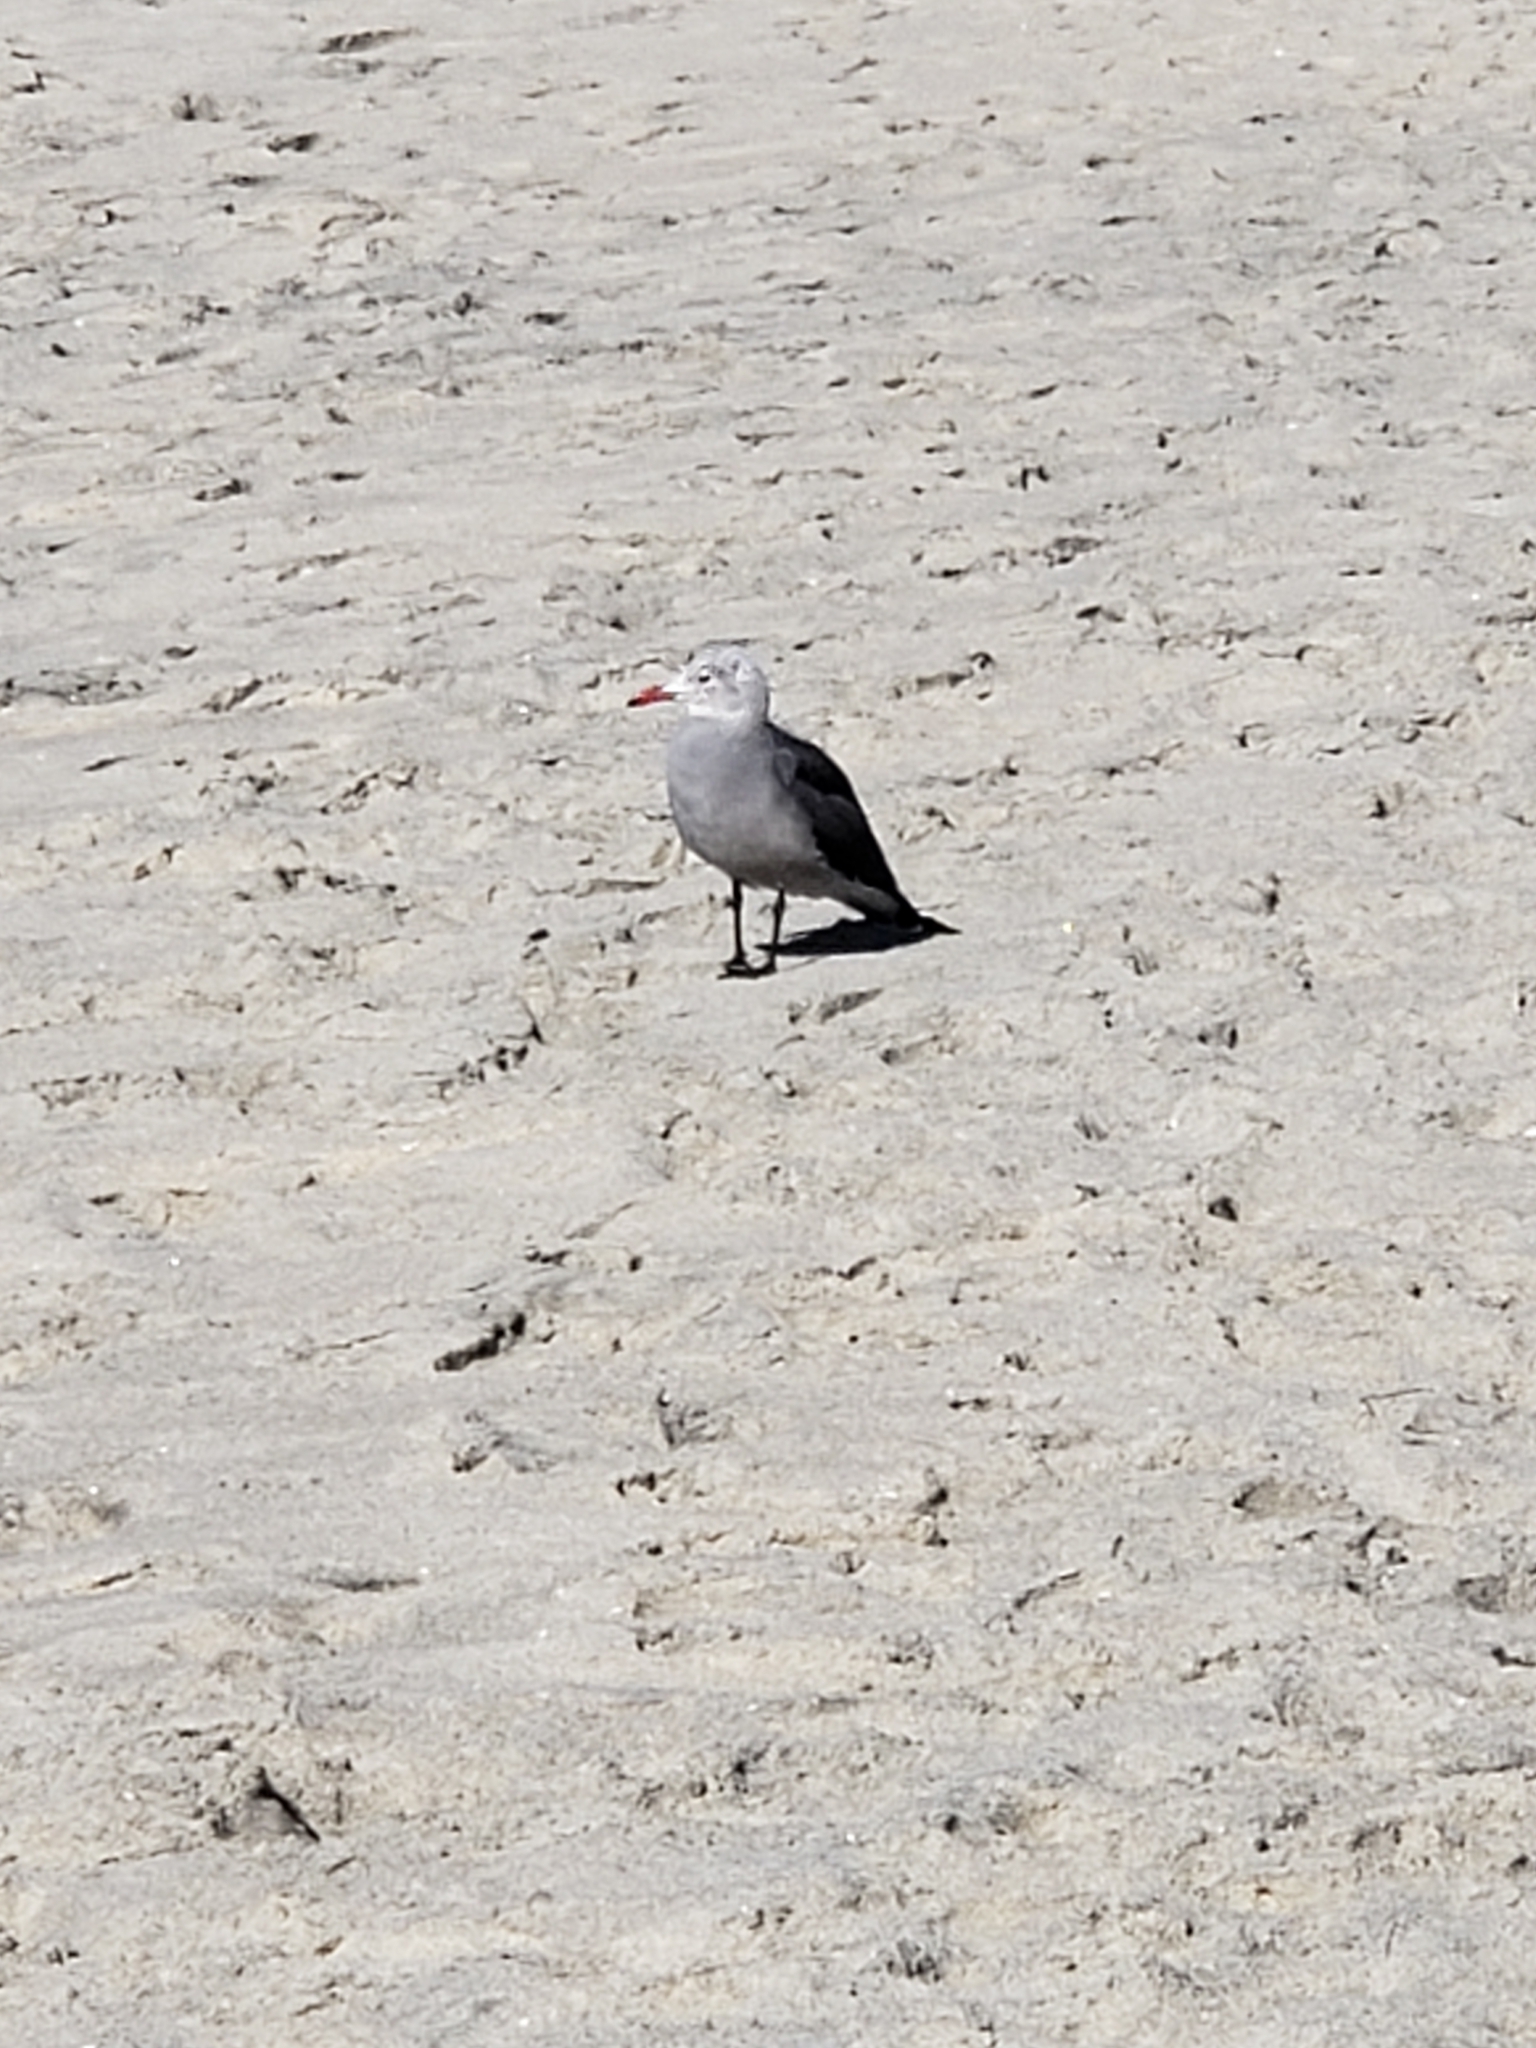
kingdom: Animalia
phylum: Chordata
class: Aves
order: Charadriiformes
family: Laridae
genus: Larus
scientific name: Larus heermanni
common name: Heermann's gull
